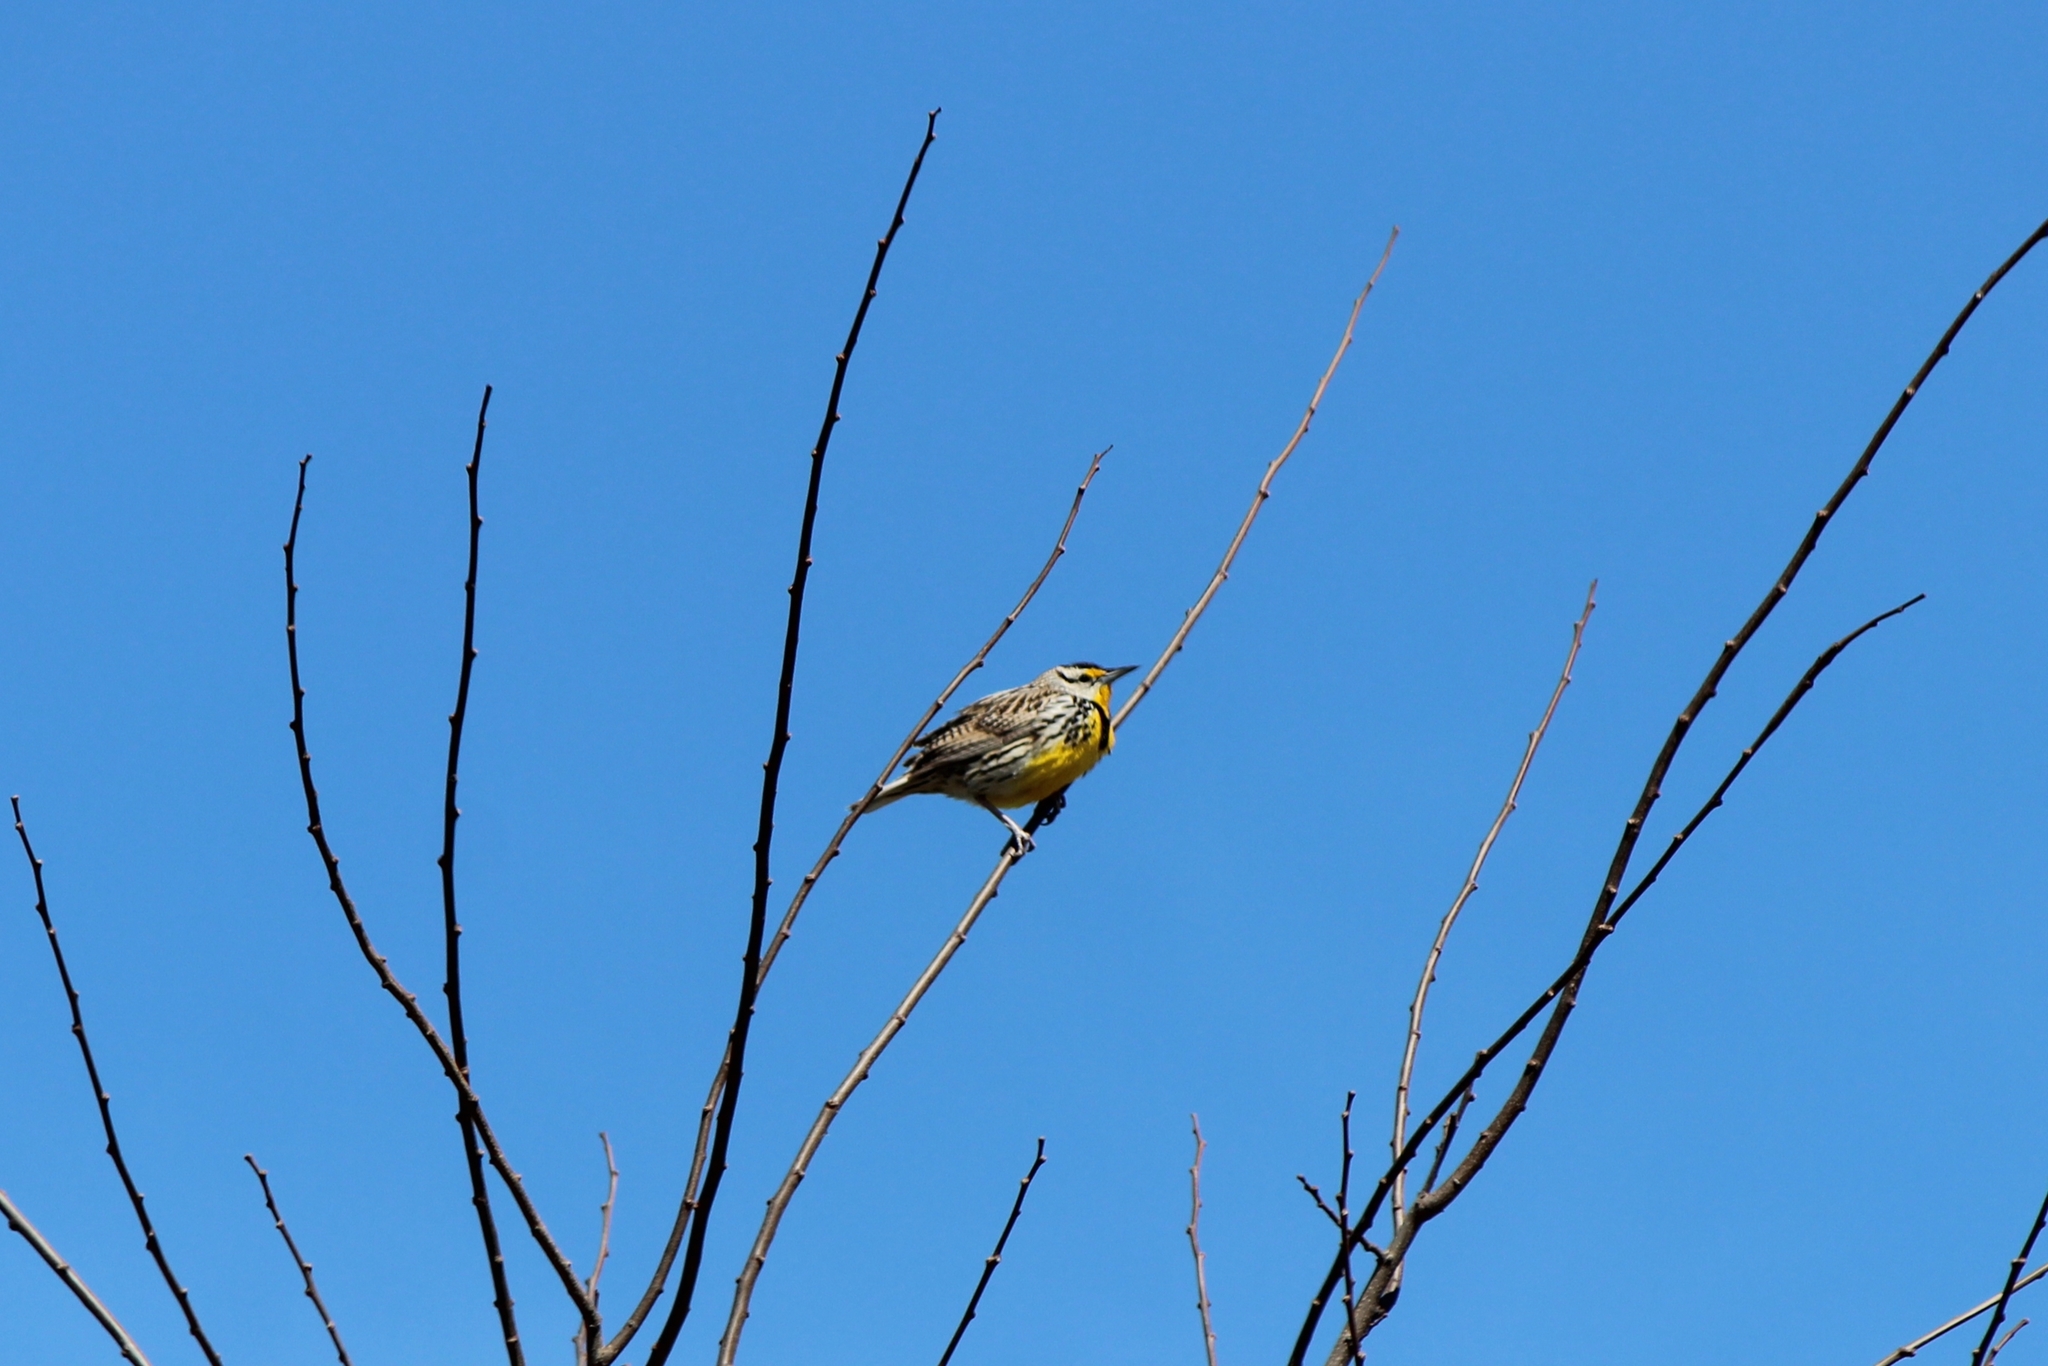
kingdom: Animalia
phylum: Chordata
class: Aves
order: Passeriformes
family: Icteridae
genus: Sturnella
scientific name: Sturnella magna
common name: Eastern meadowlark
